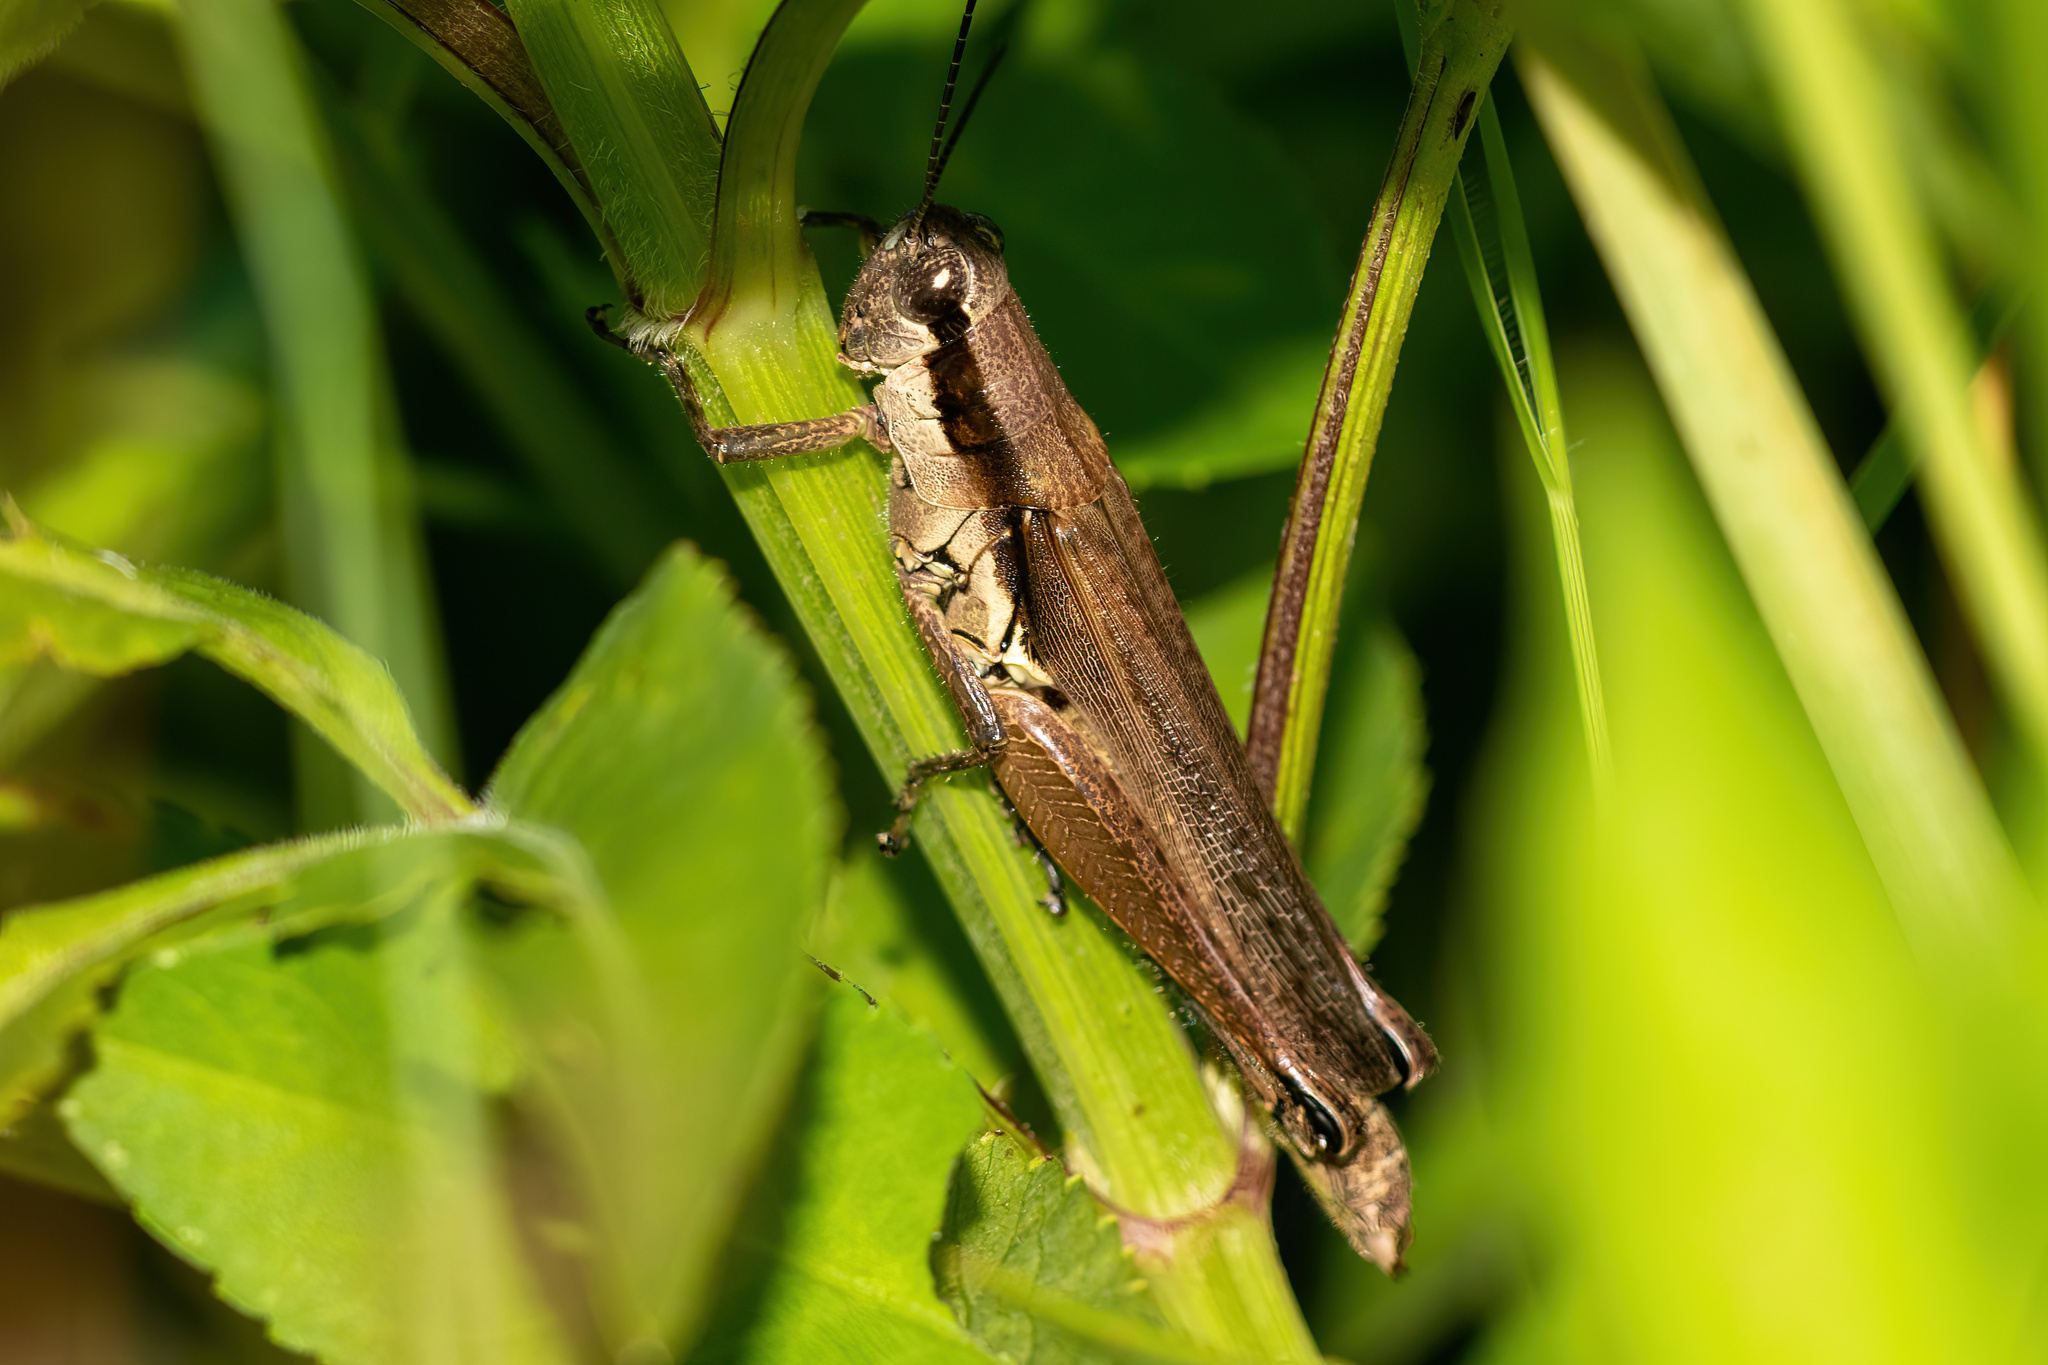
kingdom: Animalia
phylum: Arthropoda
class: Insecta
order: Orthoptera
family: Acrididae
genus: Paroxya
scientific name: Paroxya clavuligera
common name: Olive-green swamp grasshopper
